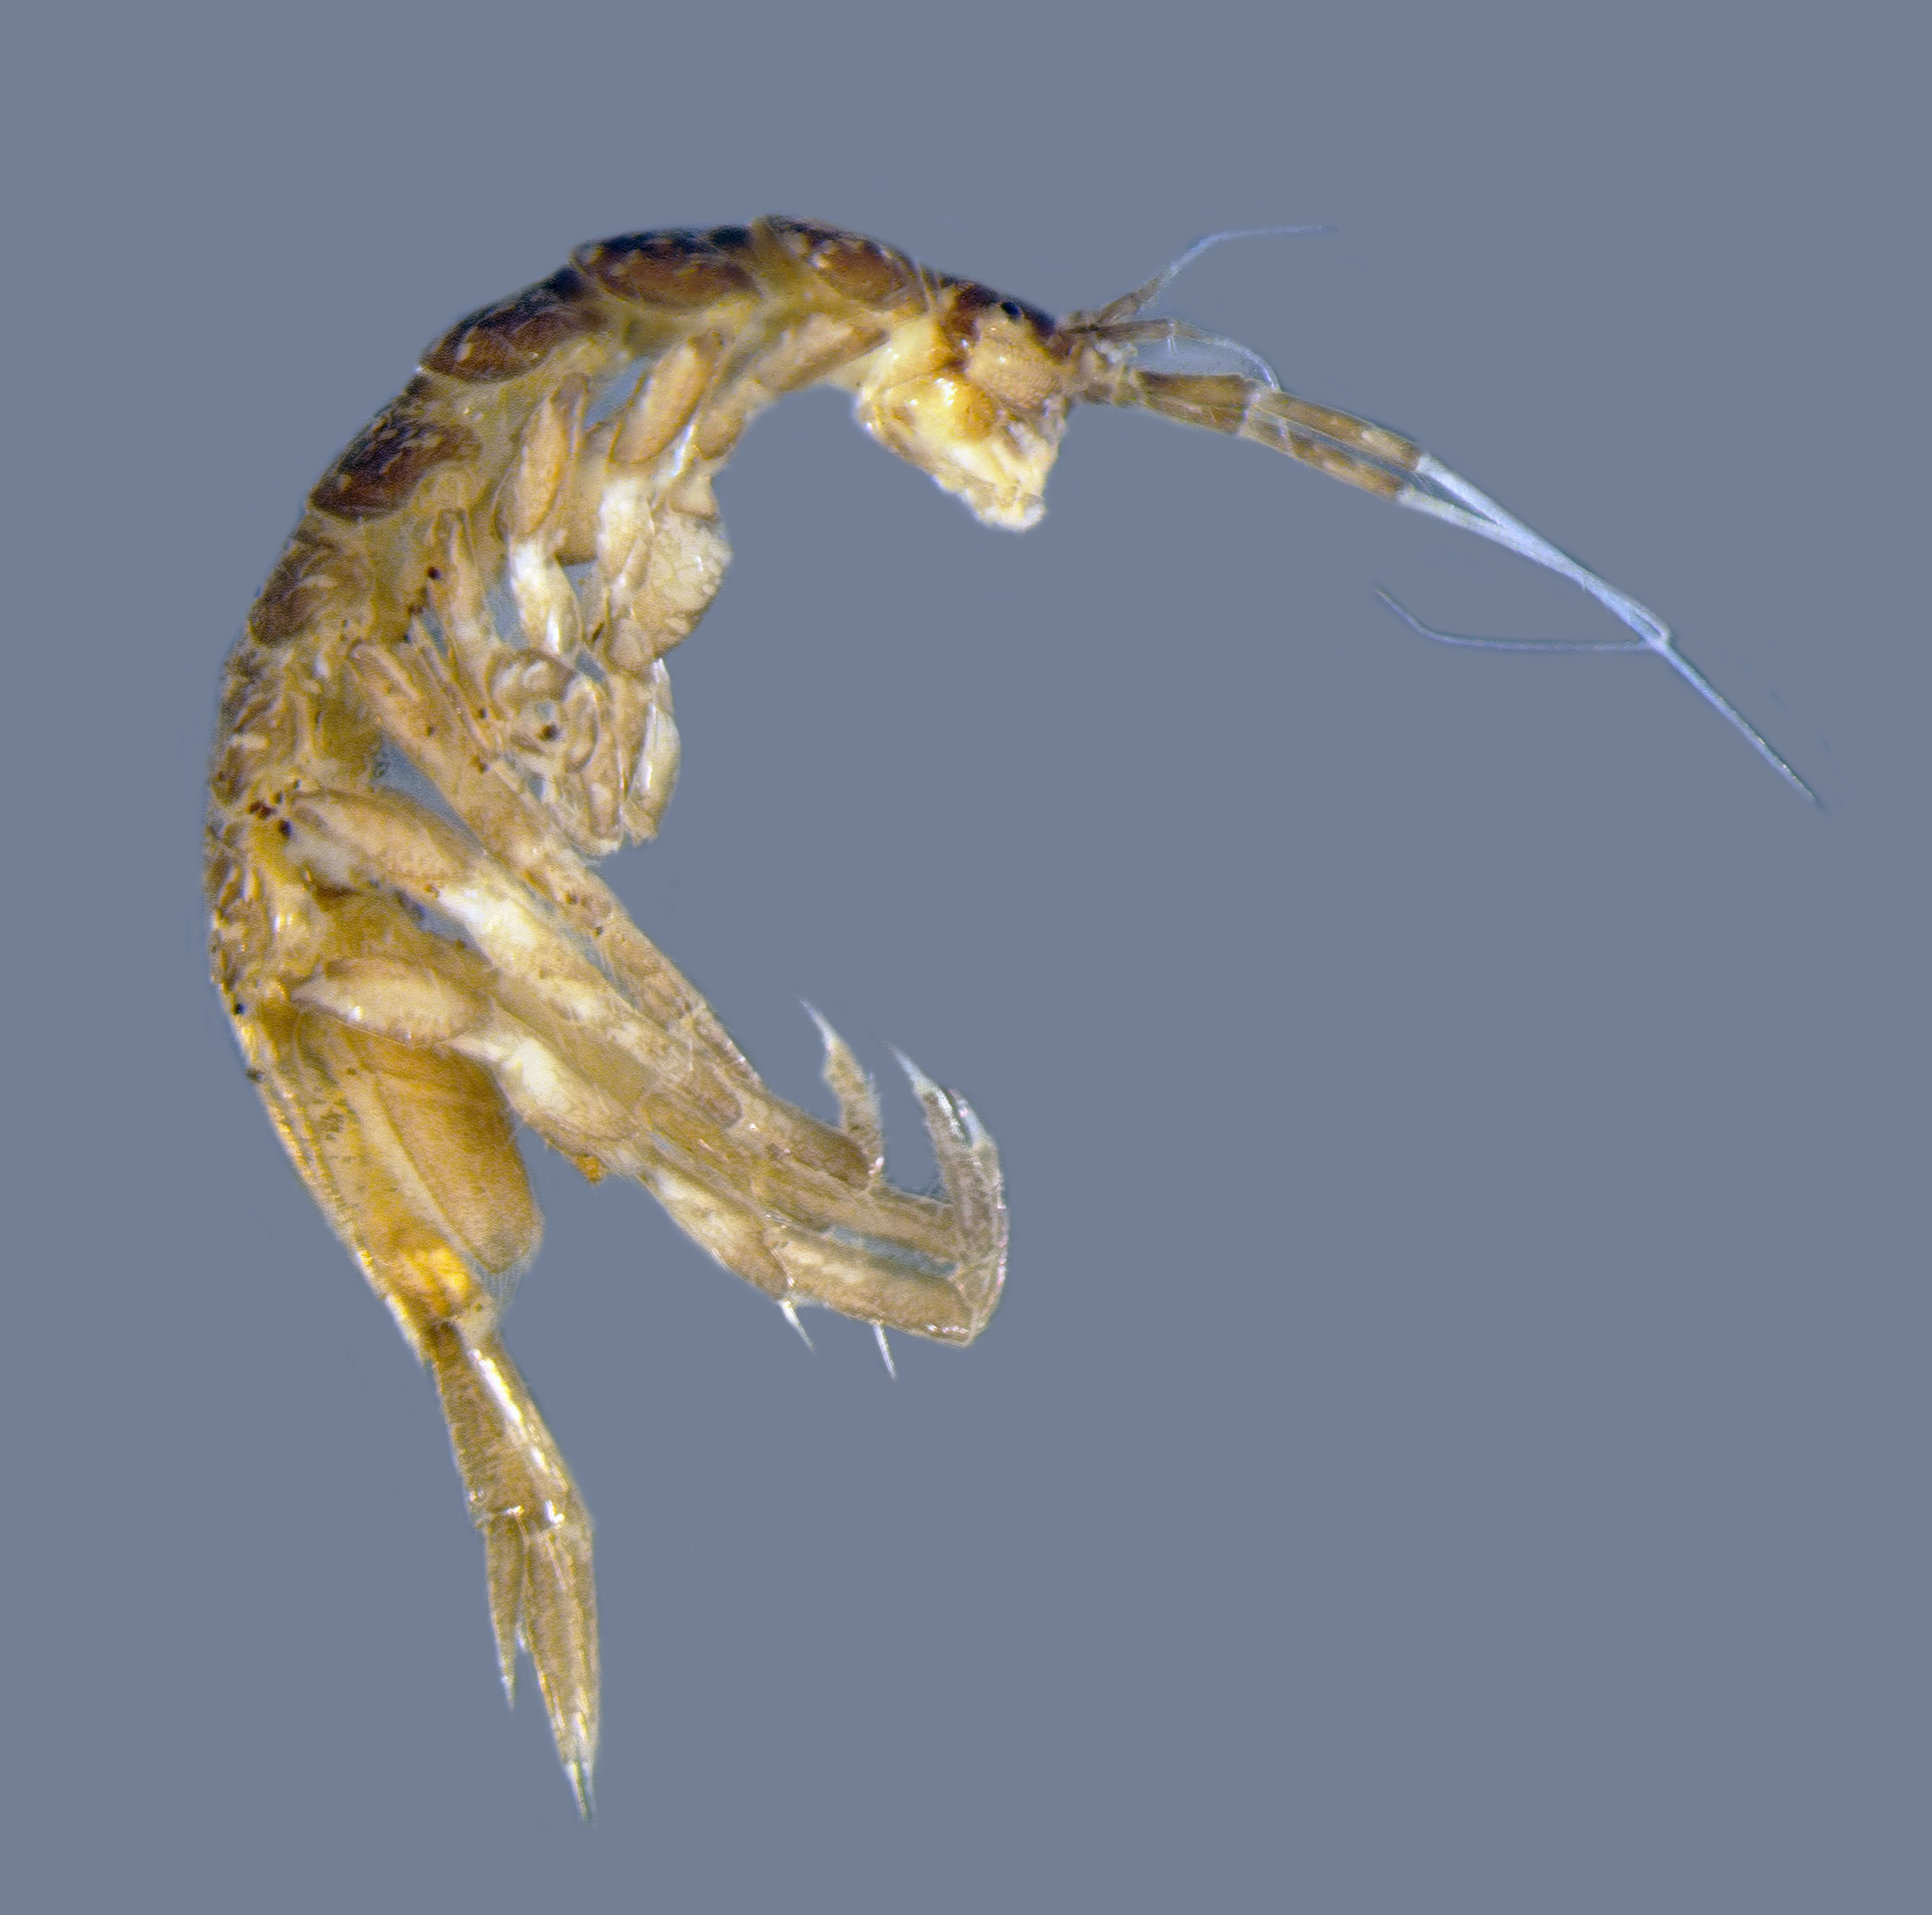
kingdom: Animalia
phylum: Arthropoda
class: Malacostraca
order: Isopoda
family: Asellidae
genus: Caecidotea
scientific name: Caecidotea forbesi
